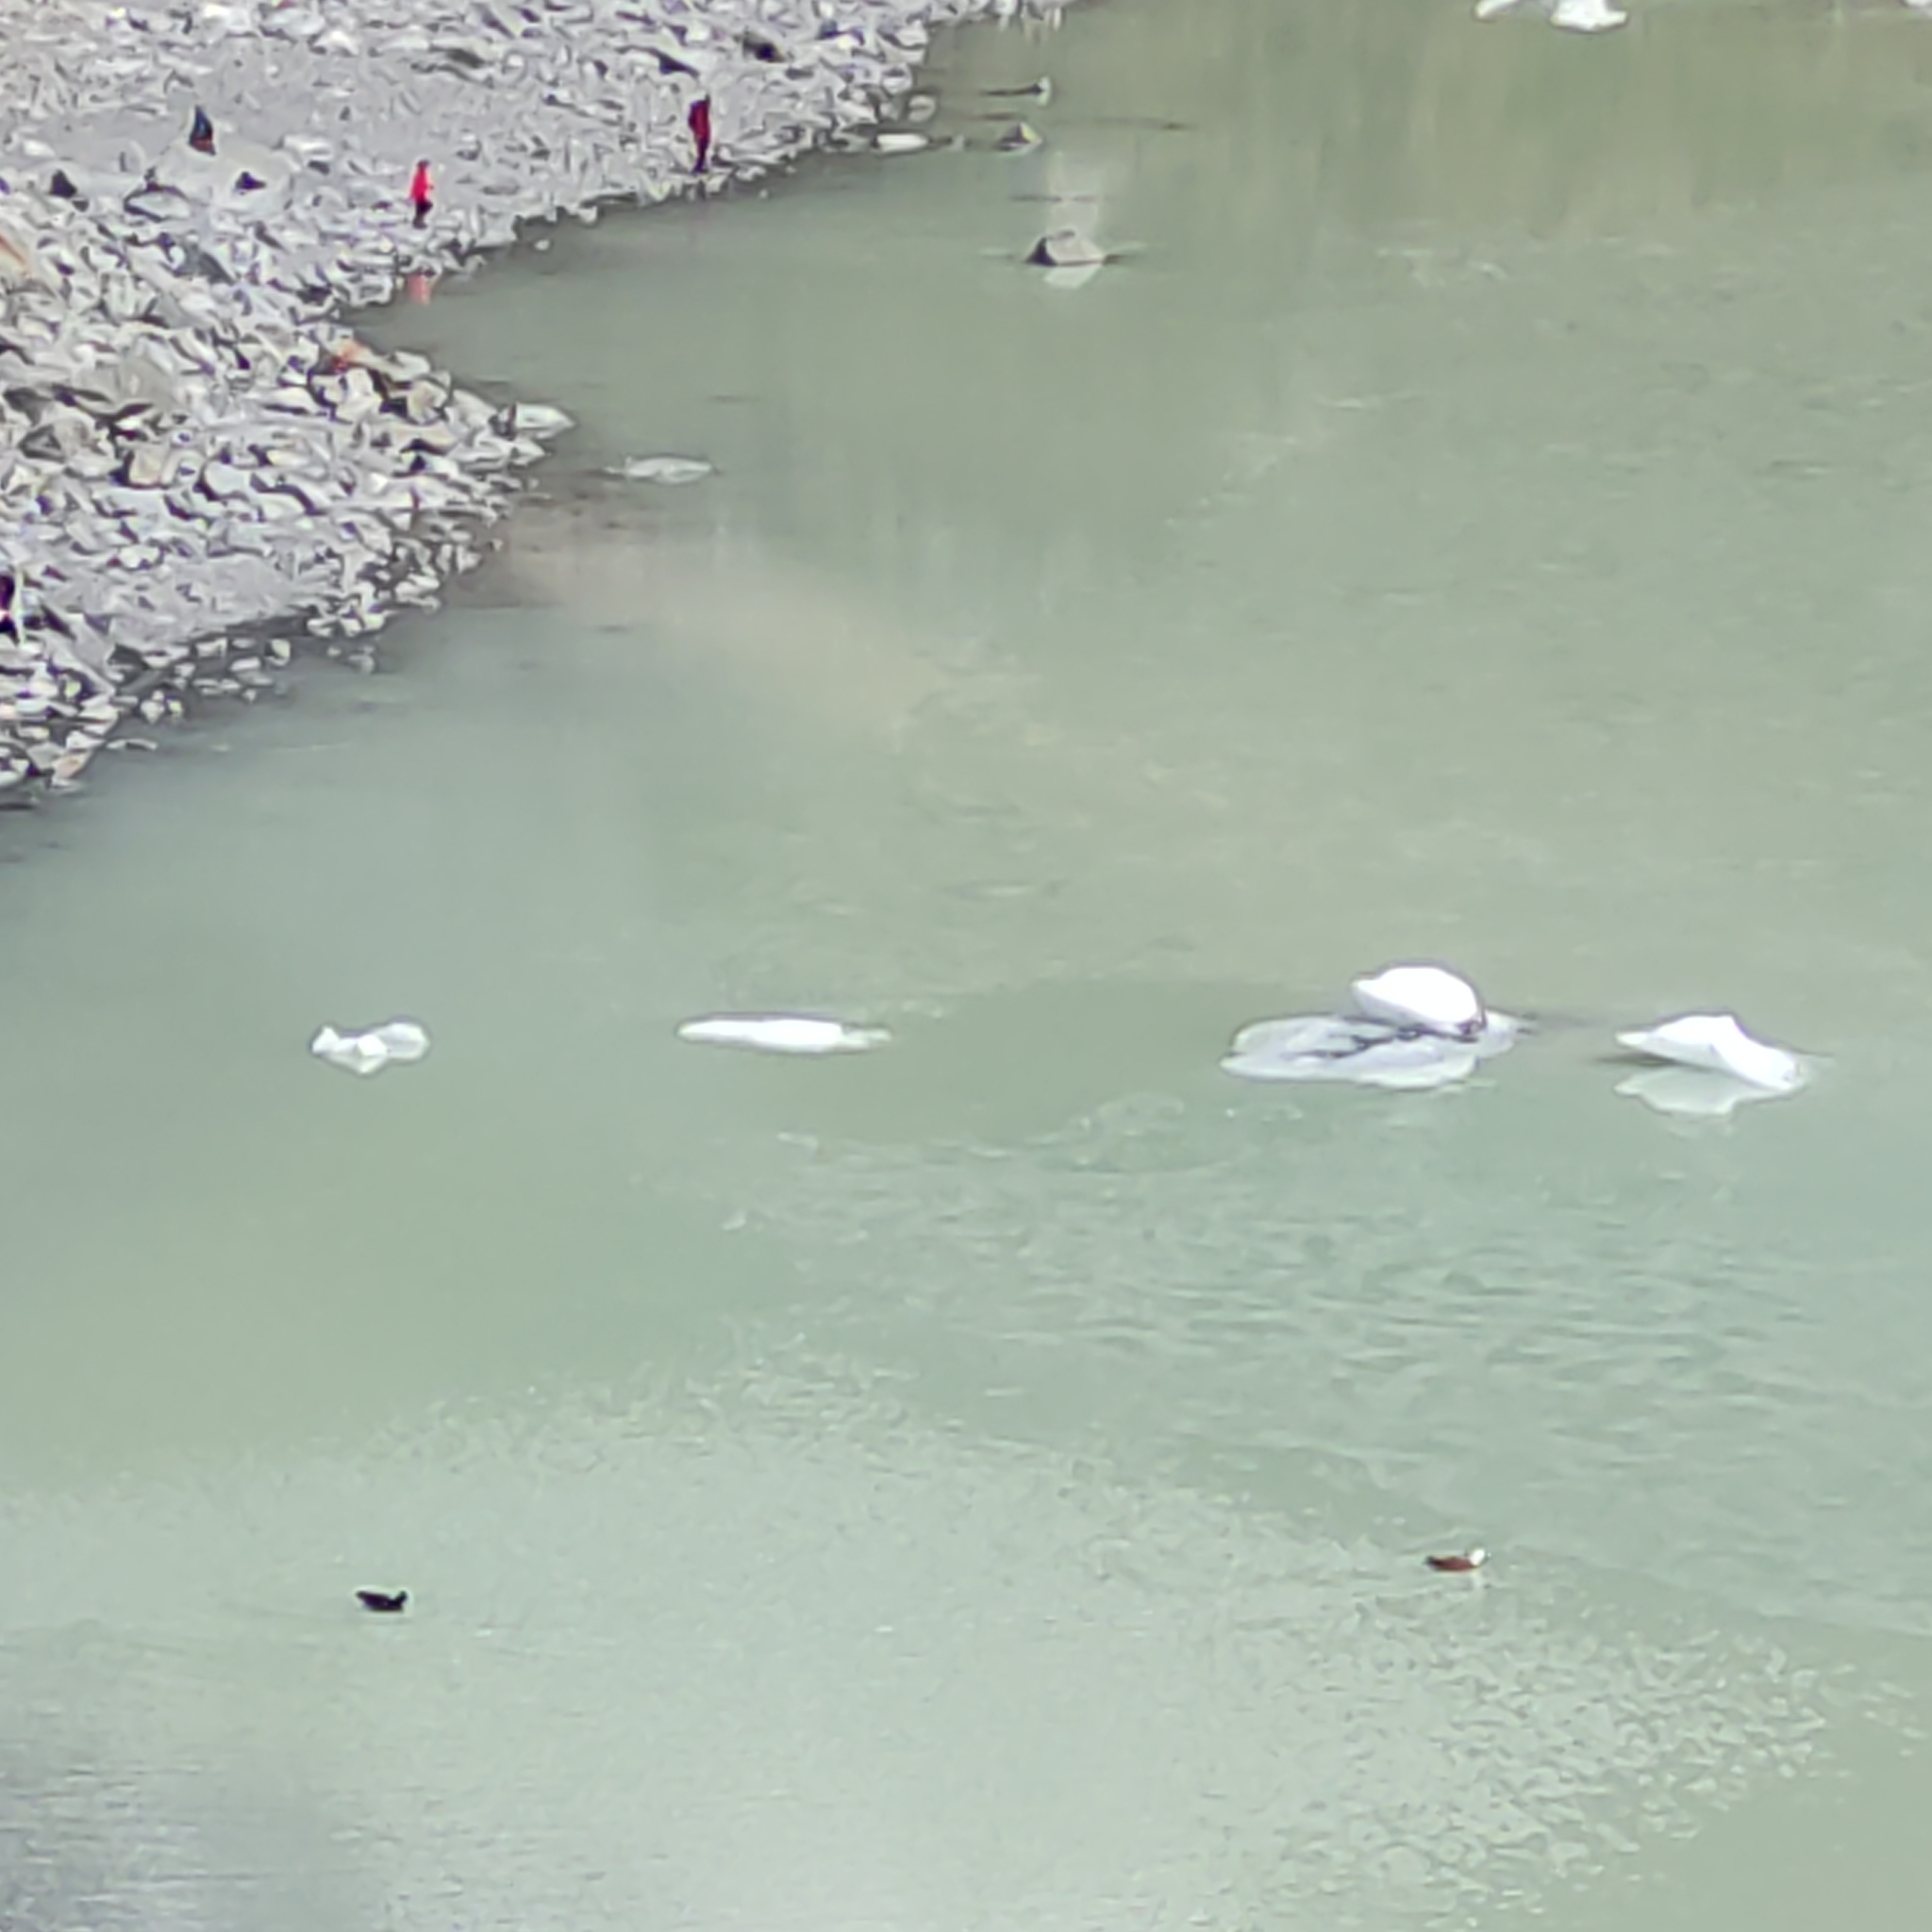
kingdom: Animalia
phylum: Chordata
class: Aves
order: Anseriformes
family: Anatidae
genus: Tadorna
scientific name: Tadorna variegata
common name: Paradise shelduck
